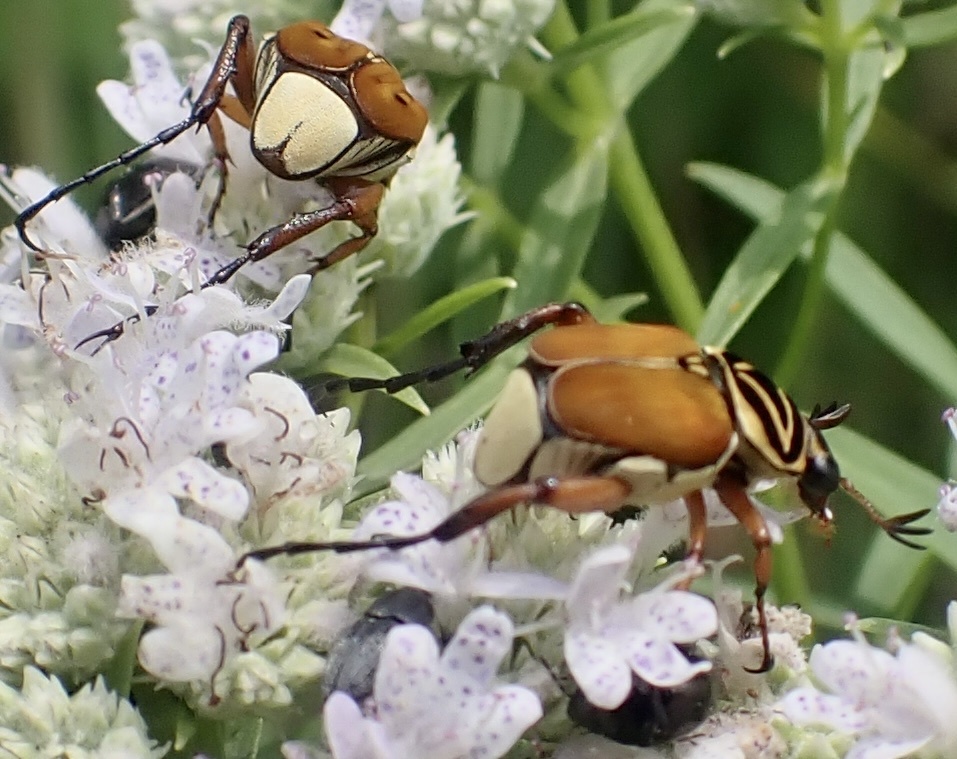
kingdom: Animalia
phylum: Arthropoda
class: Insecta
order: Coleoptera
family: Scarabaeidae
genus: Trigonopeltastes
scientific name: Trigonopeltastes delta
